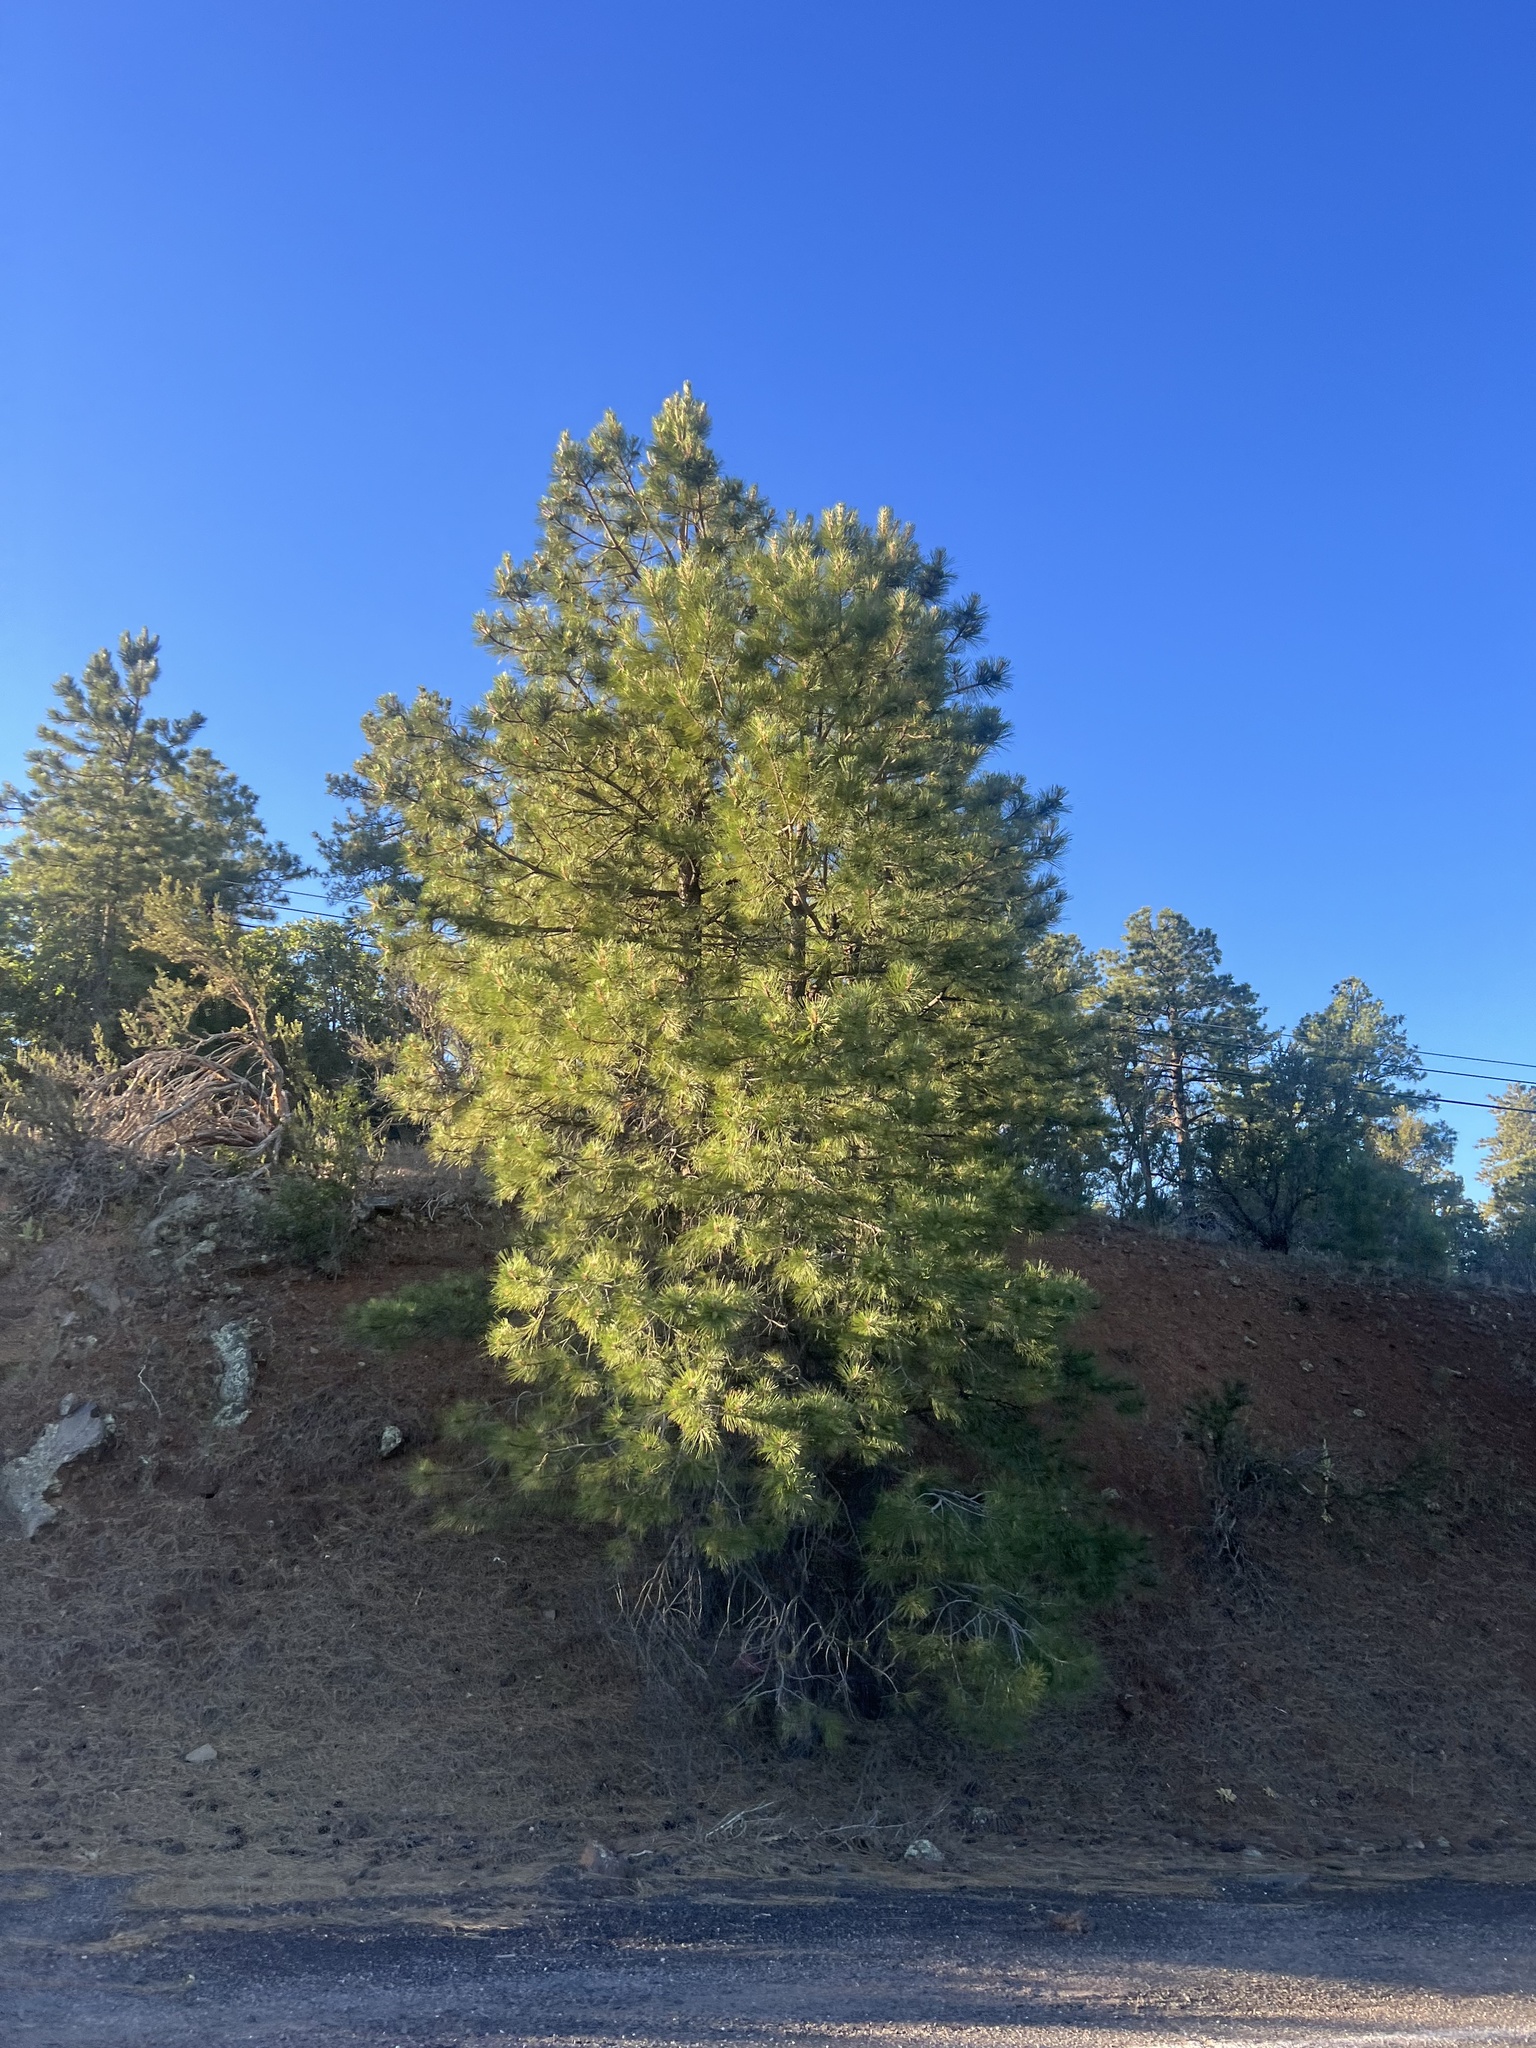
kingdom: Plantae
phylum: Tracheophyta
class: Pinopsida
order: Pinales
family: Pinaceae
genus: Pinus
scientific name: Pinus ponderosa
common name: Western yellow-pine
